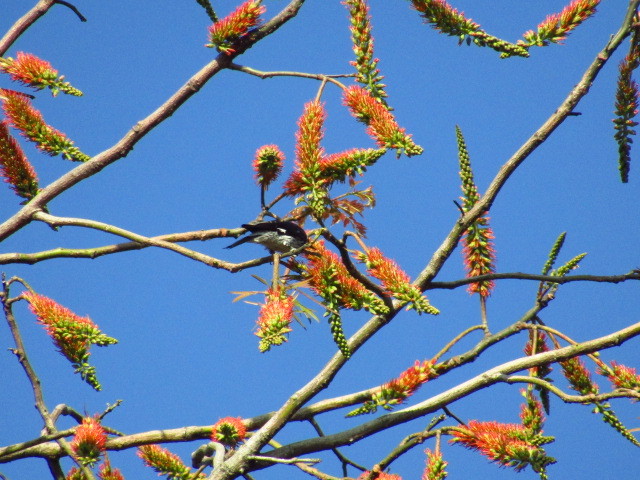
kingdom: Animalia
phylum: Chordata
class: Aves
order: Piciformes
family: Picidae
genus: Melanerpes
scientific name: Melanerpes formicivorus
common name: Acorn woodpecker
